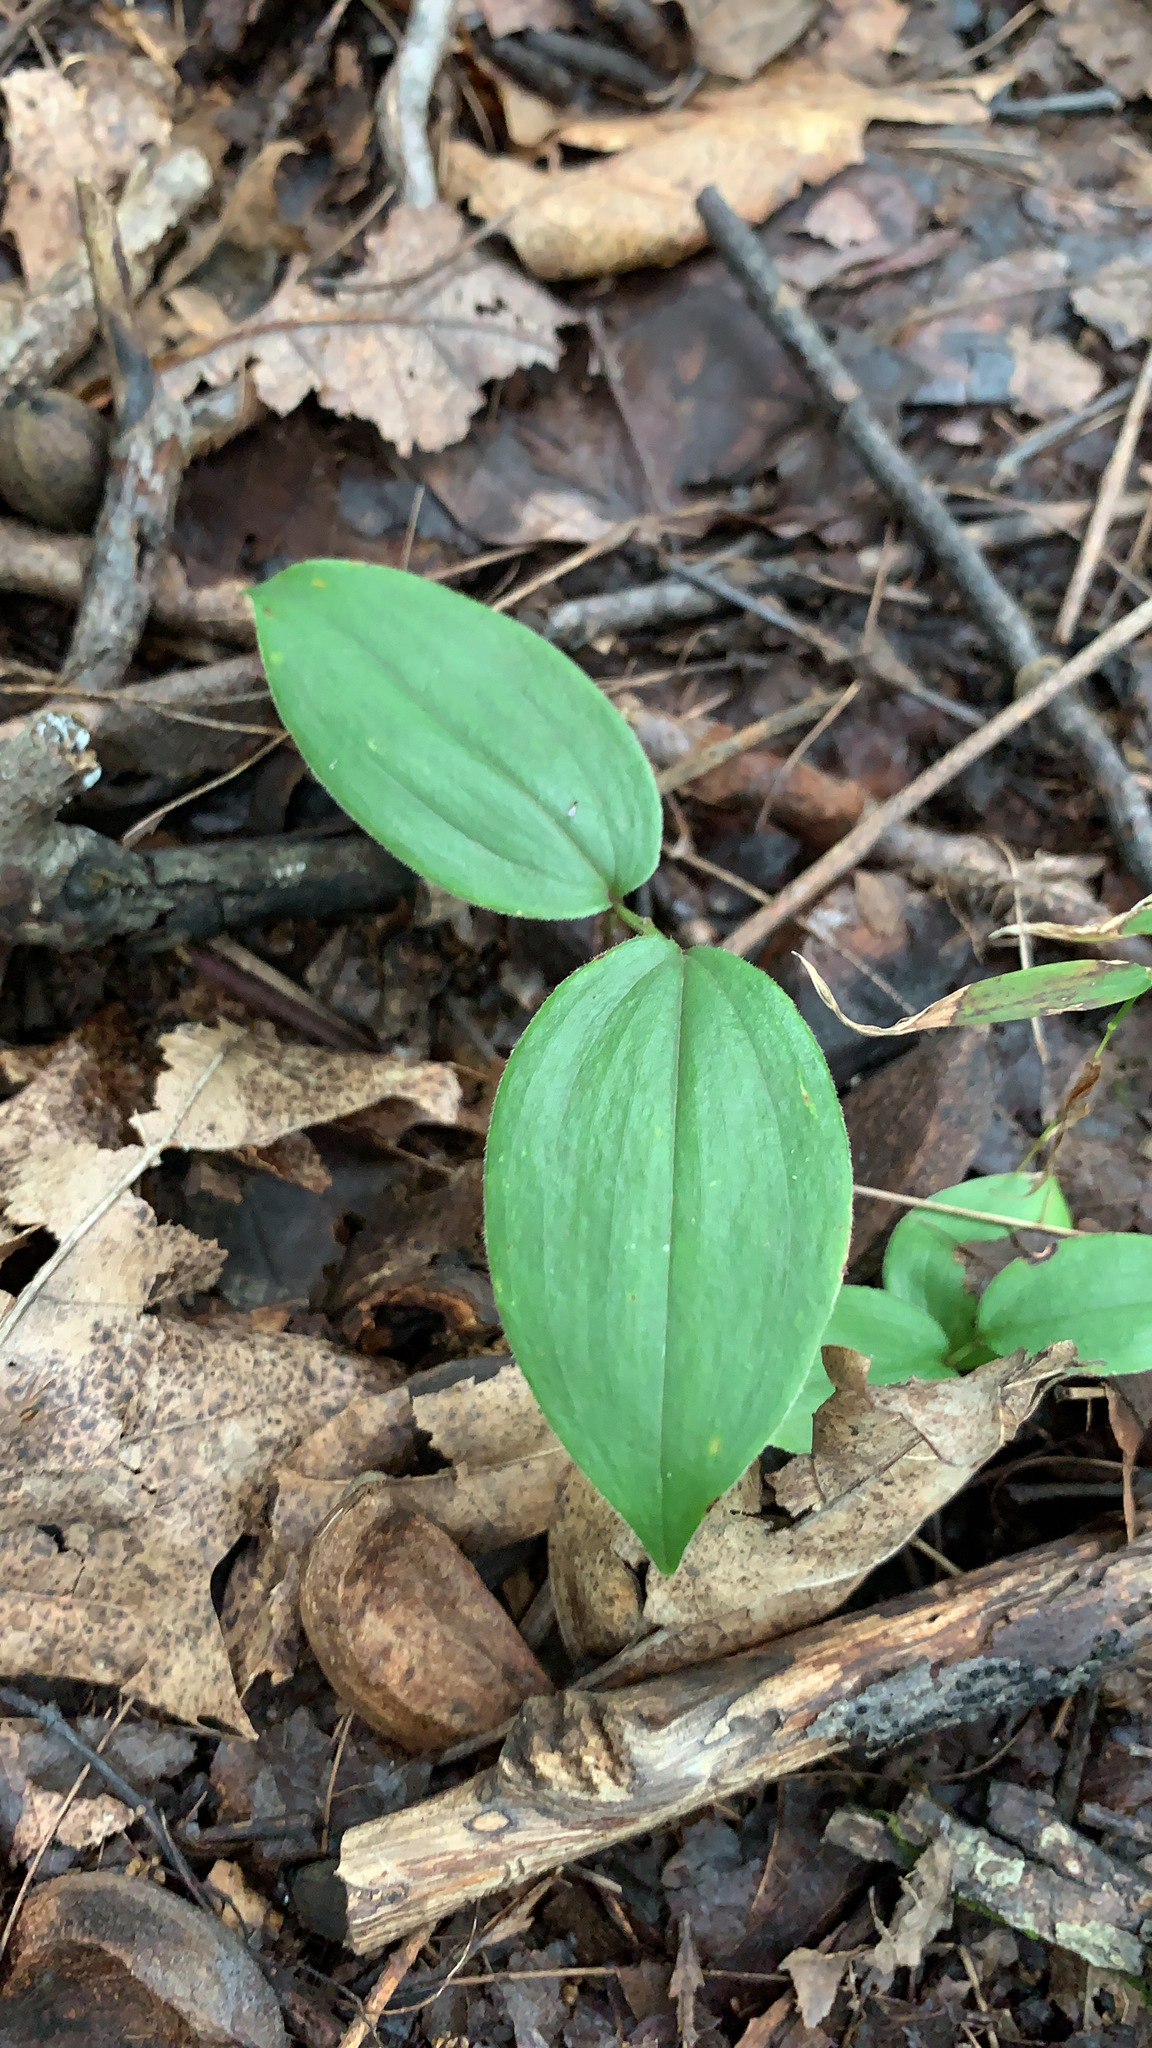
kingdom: Plantae
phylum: Tracheophyta
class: Liliopsida
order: Asparagales
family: Asparagaceae
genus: Maianthemum
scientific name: Maianthemum racemosum
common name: False spikenard
